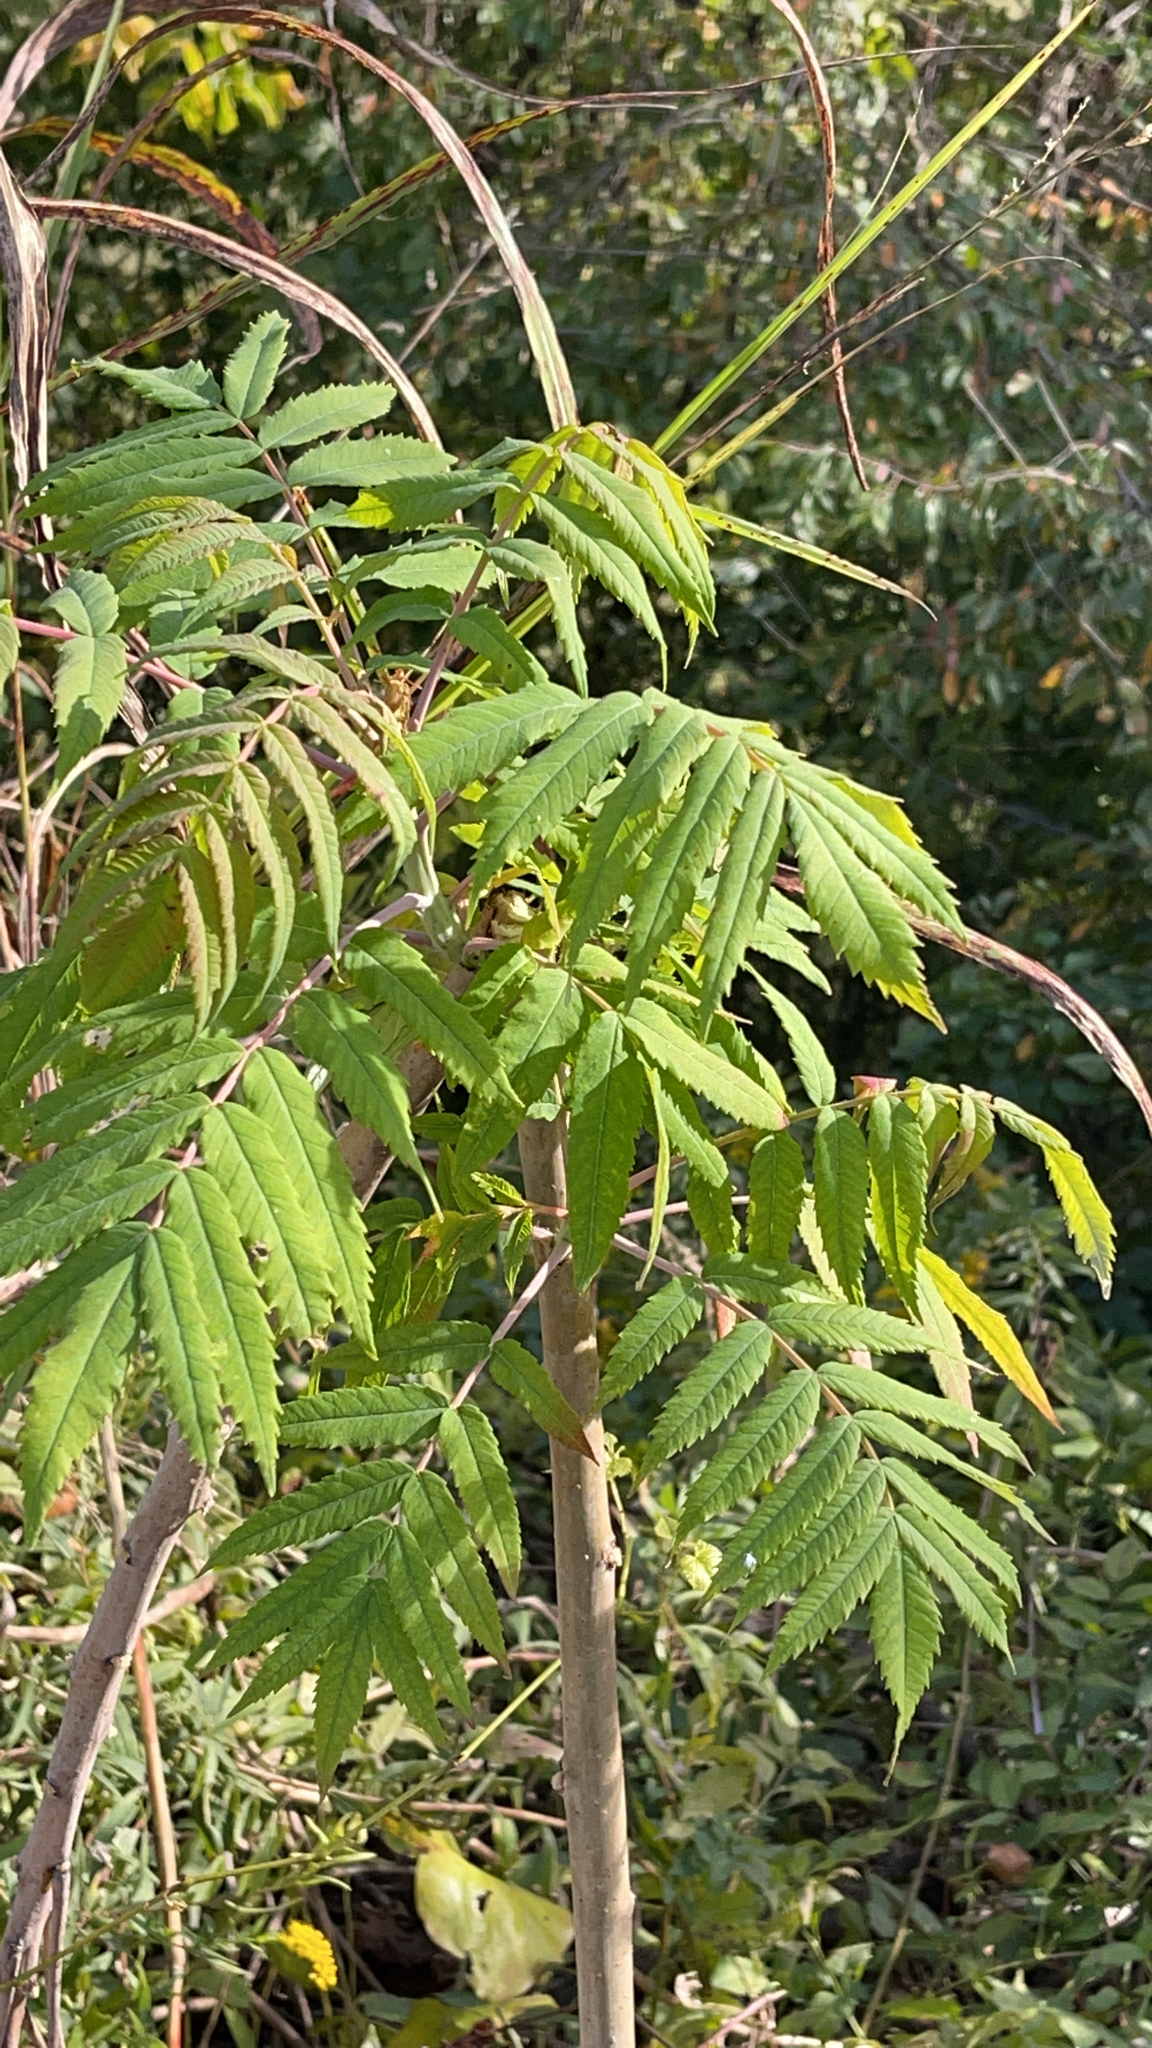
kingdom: Plantae
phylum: Tracheophyta
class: Magnoliopsida
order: Sapindales
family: Anacardiaceae
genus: Rhus
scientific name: Rhus glabra
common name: Scarlet sumac
